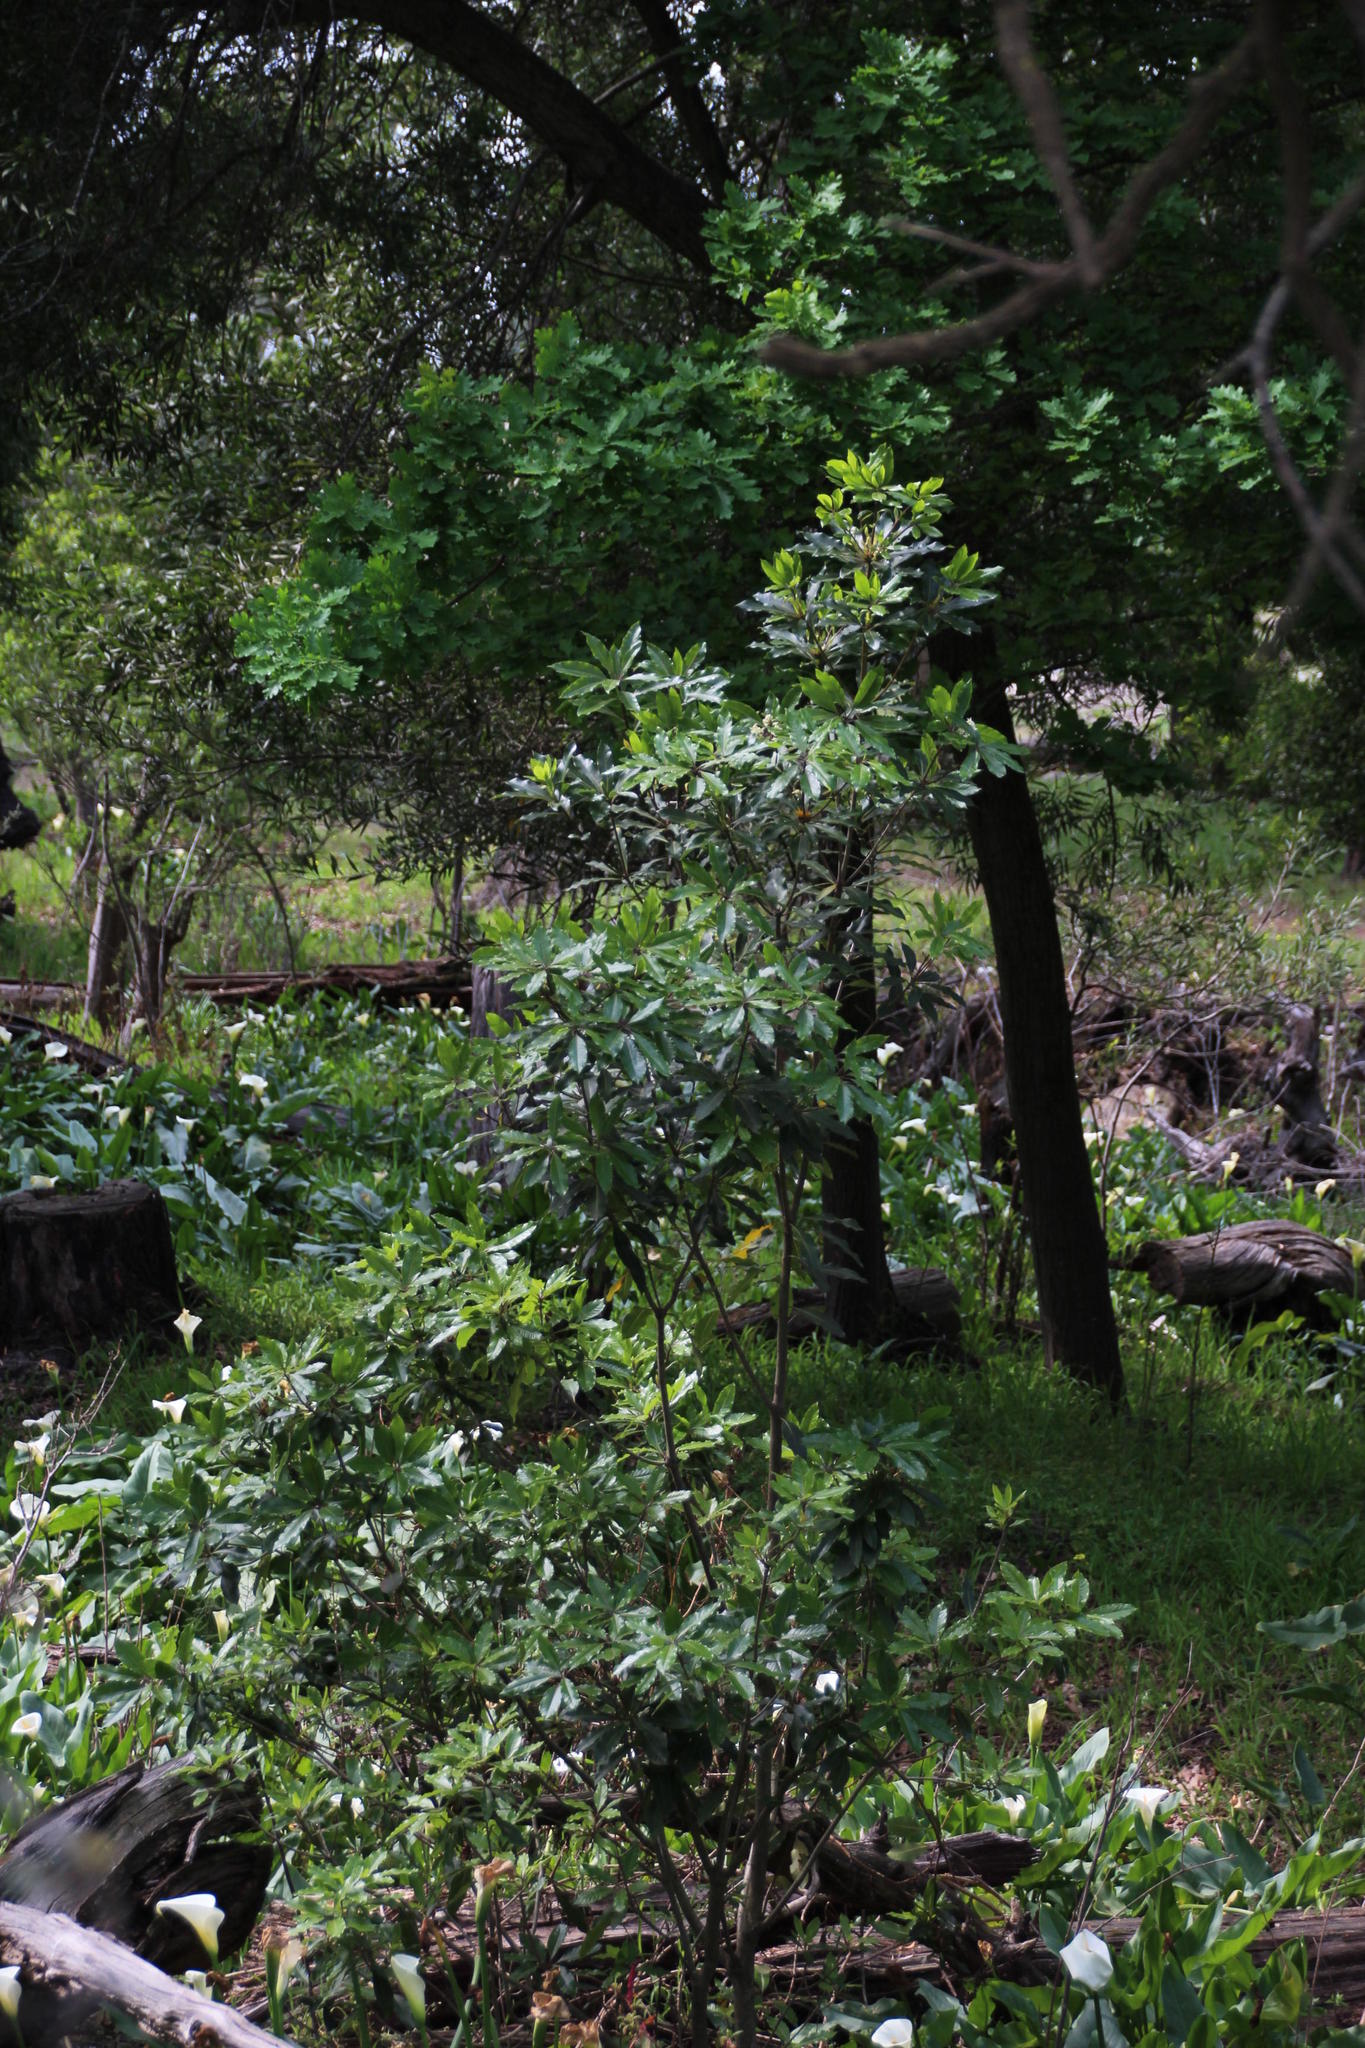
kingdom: Plantae
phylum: Tracheophyta
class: Magnoliopsida
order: Apiales
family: Pittosporaceae
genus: Pittosporum
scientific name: Pittosporum undulatum
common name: Australian cheesewood
